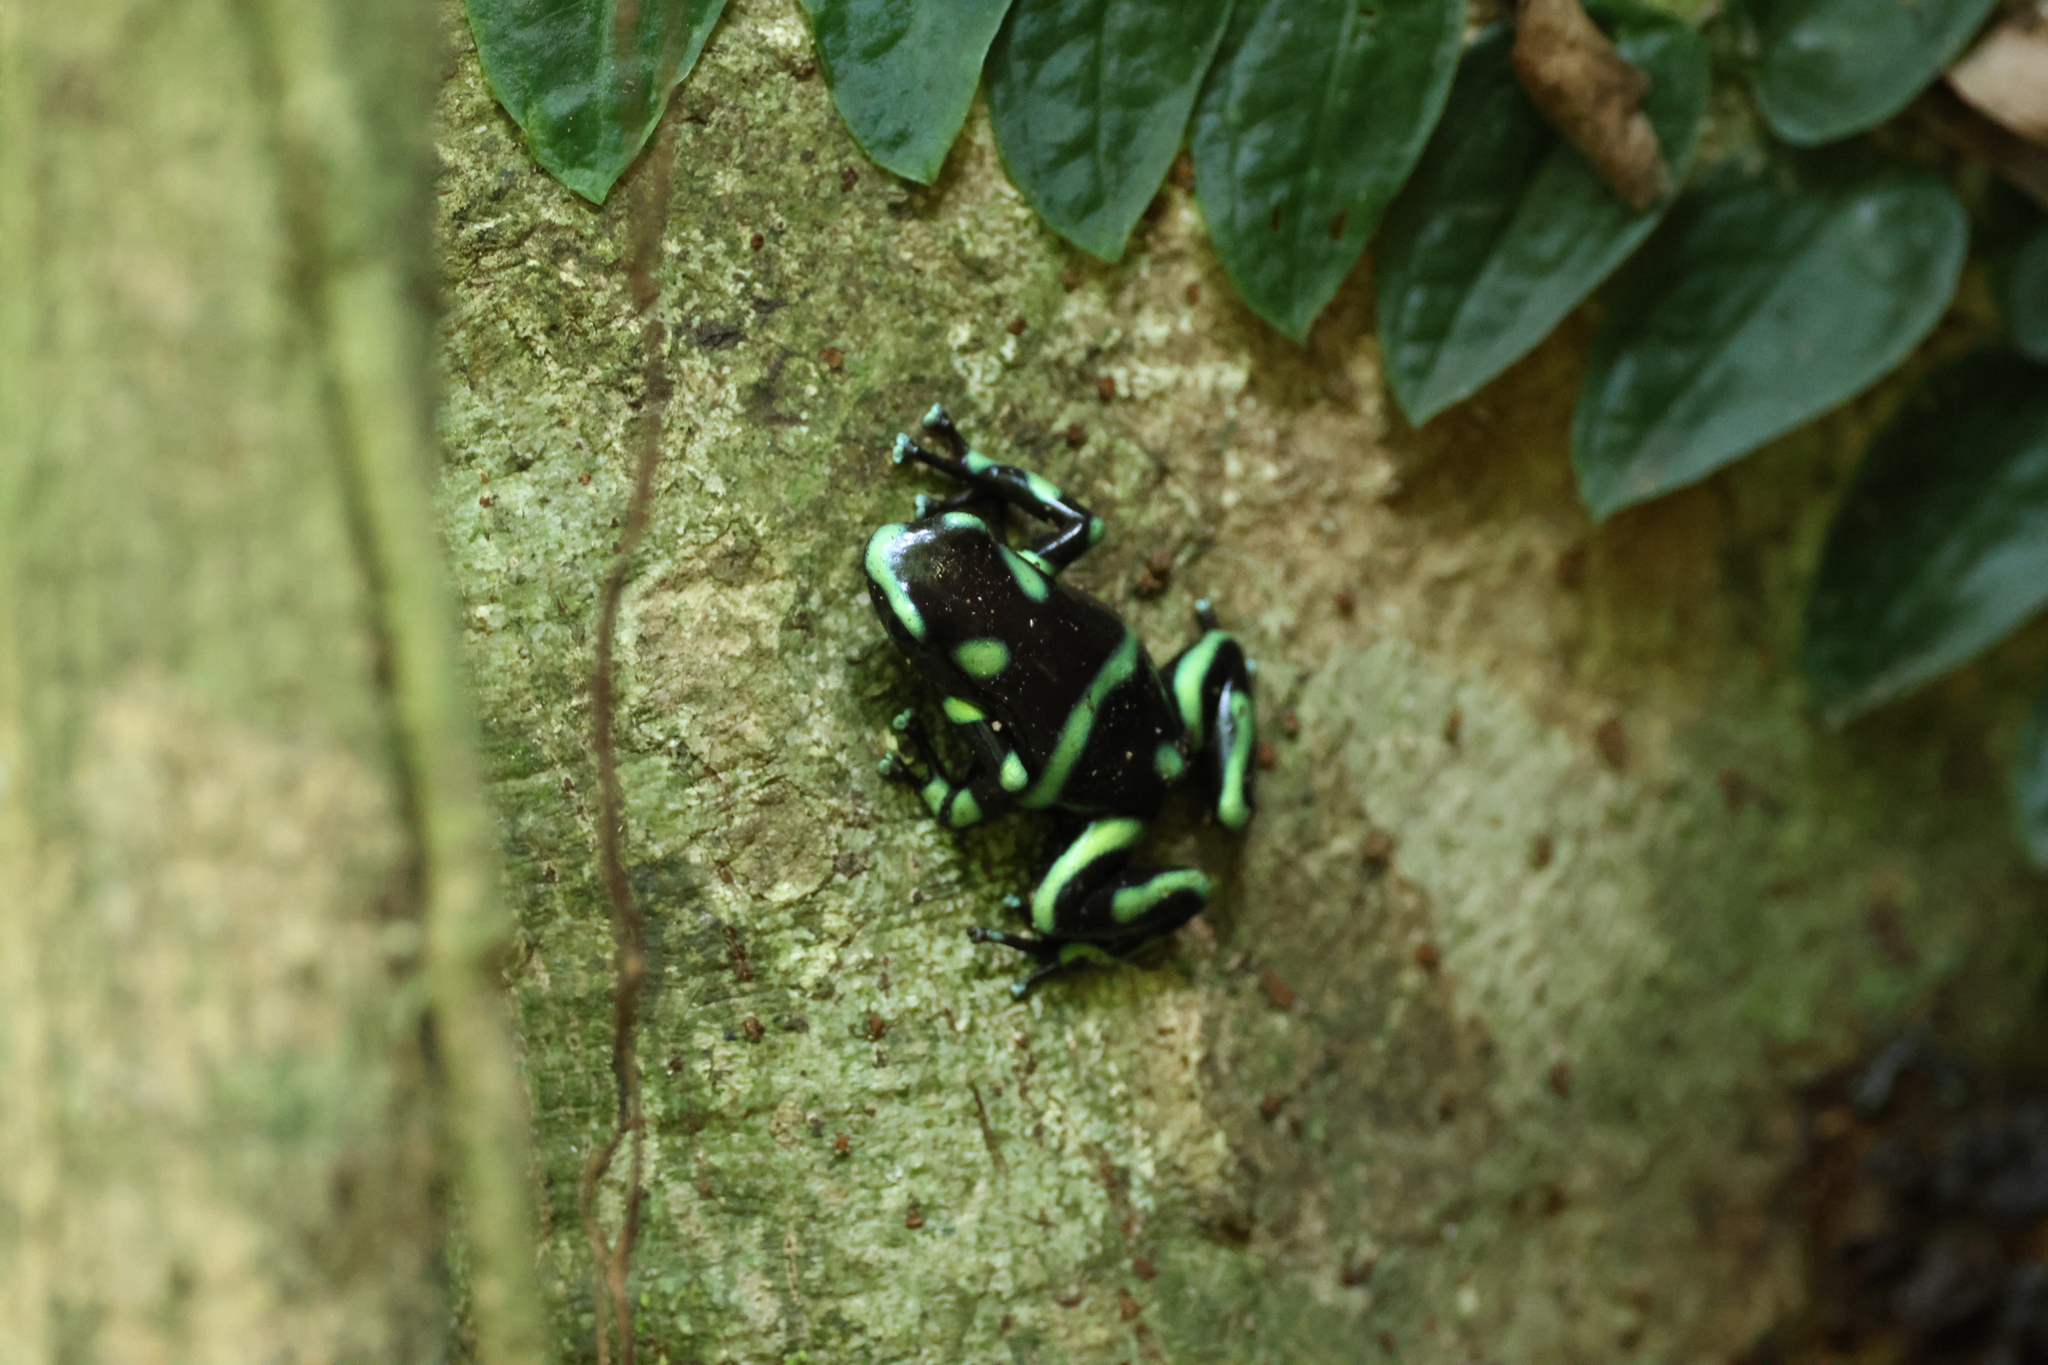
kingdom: Animalia
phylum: Chordata
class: Amphibia
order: Anura
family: Dendrobatidae
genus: Dendrobates
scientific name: Dendrobates auratus
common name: Green and black poison dart frog
